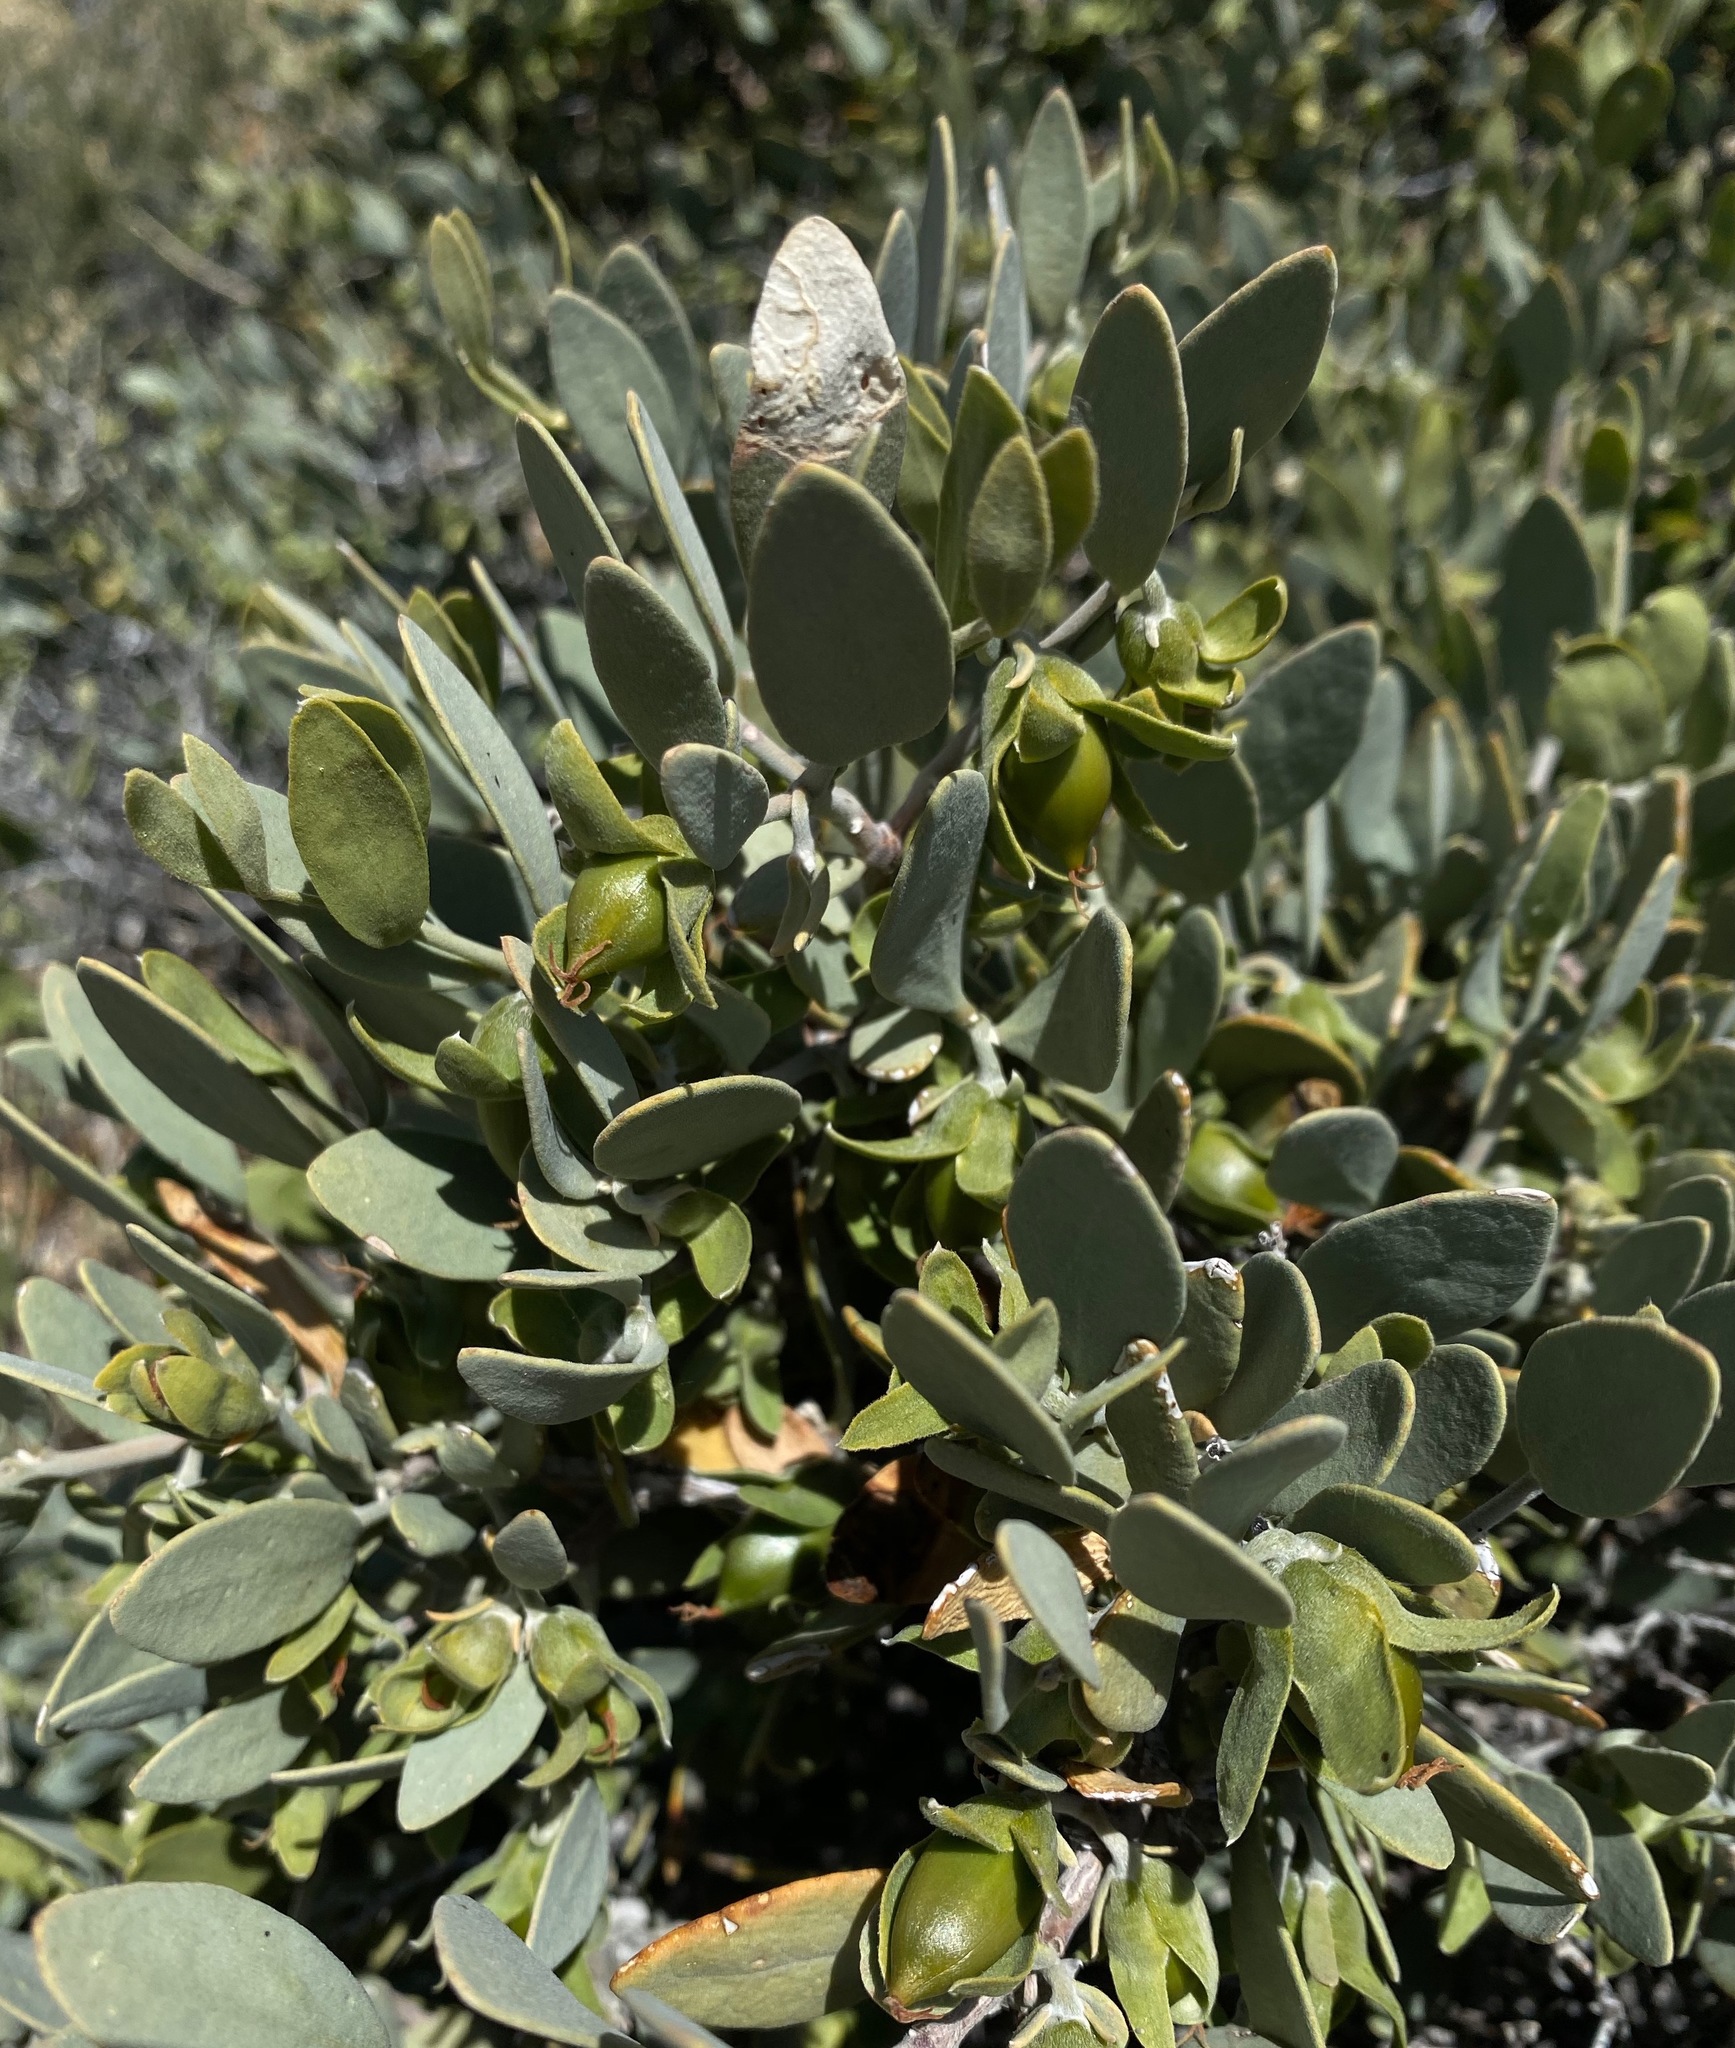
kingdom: Plantae
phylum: Tracheophyta
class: Magnoliopsida
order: Caryophyllales
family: Simmondsiaceae
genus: Simmondsia
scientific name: Simmondsia chinensis
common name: Jojoba
